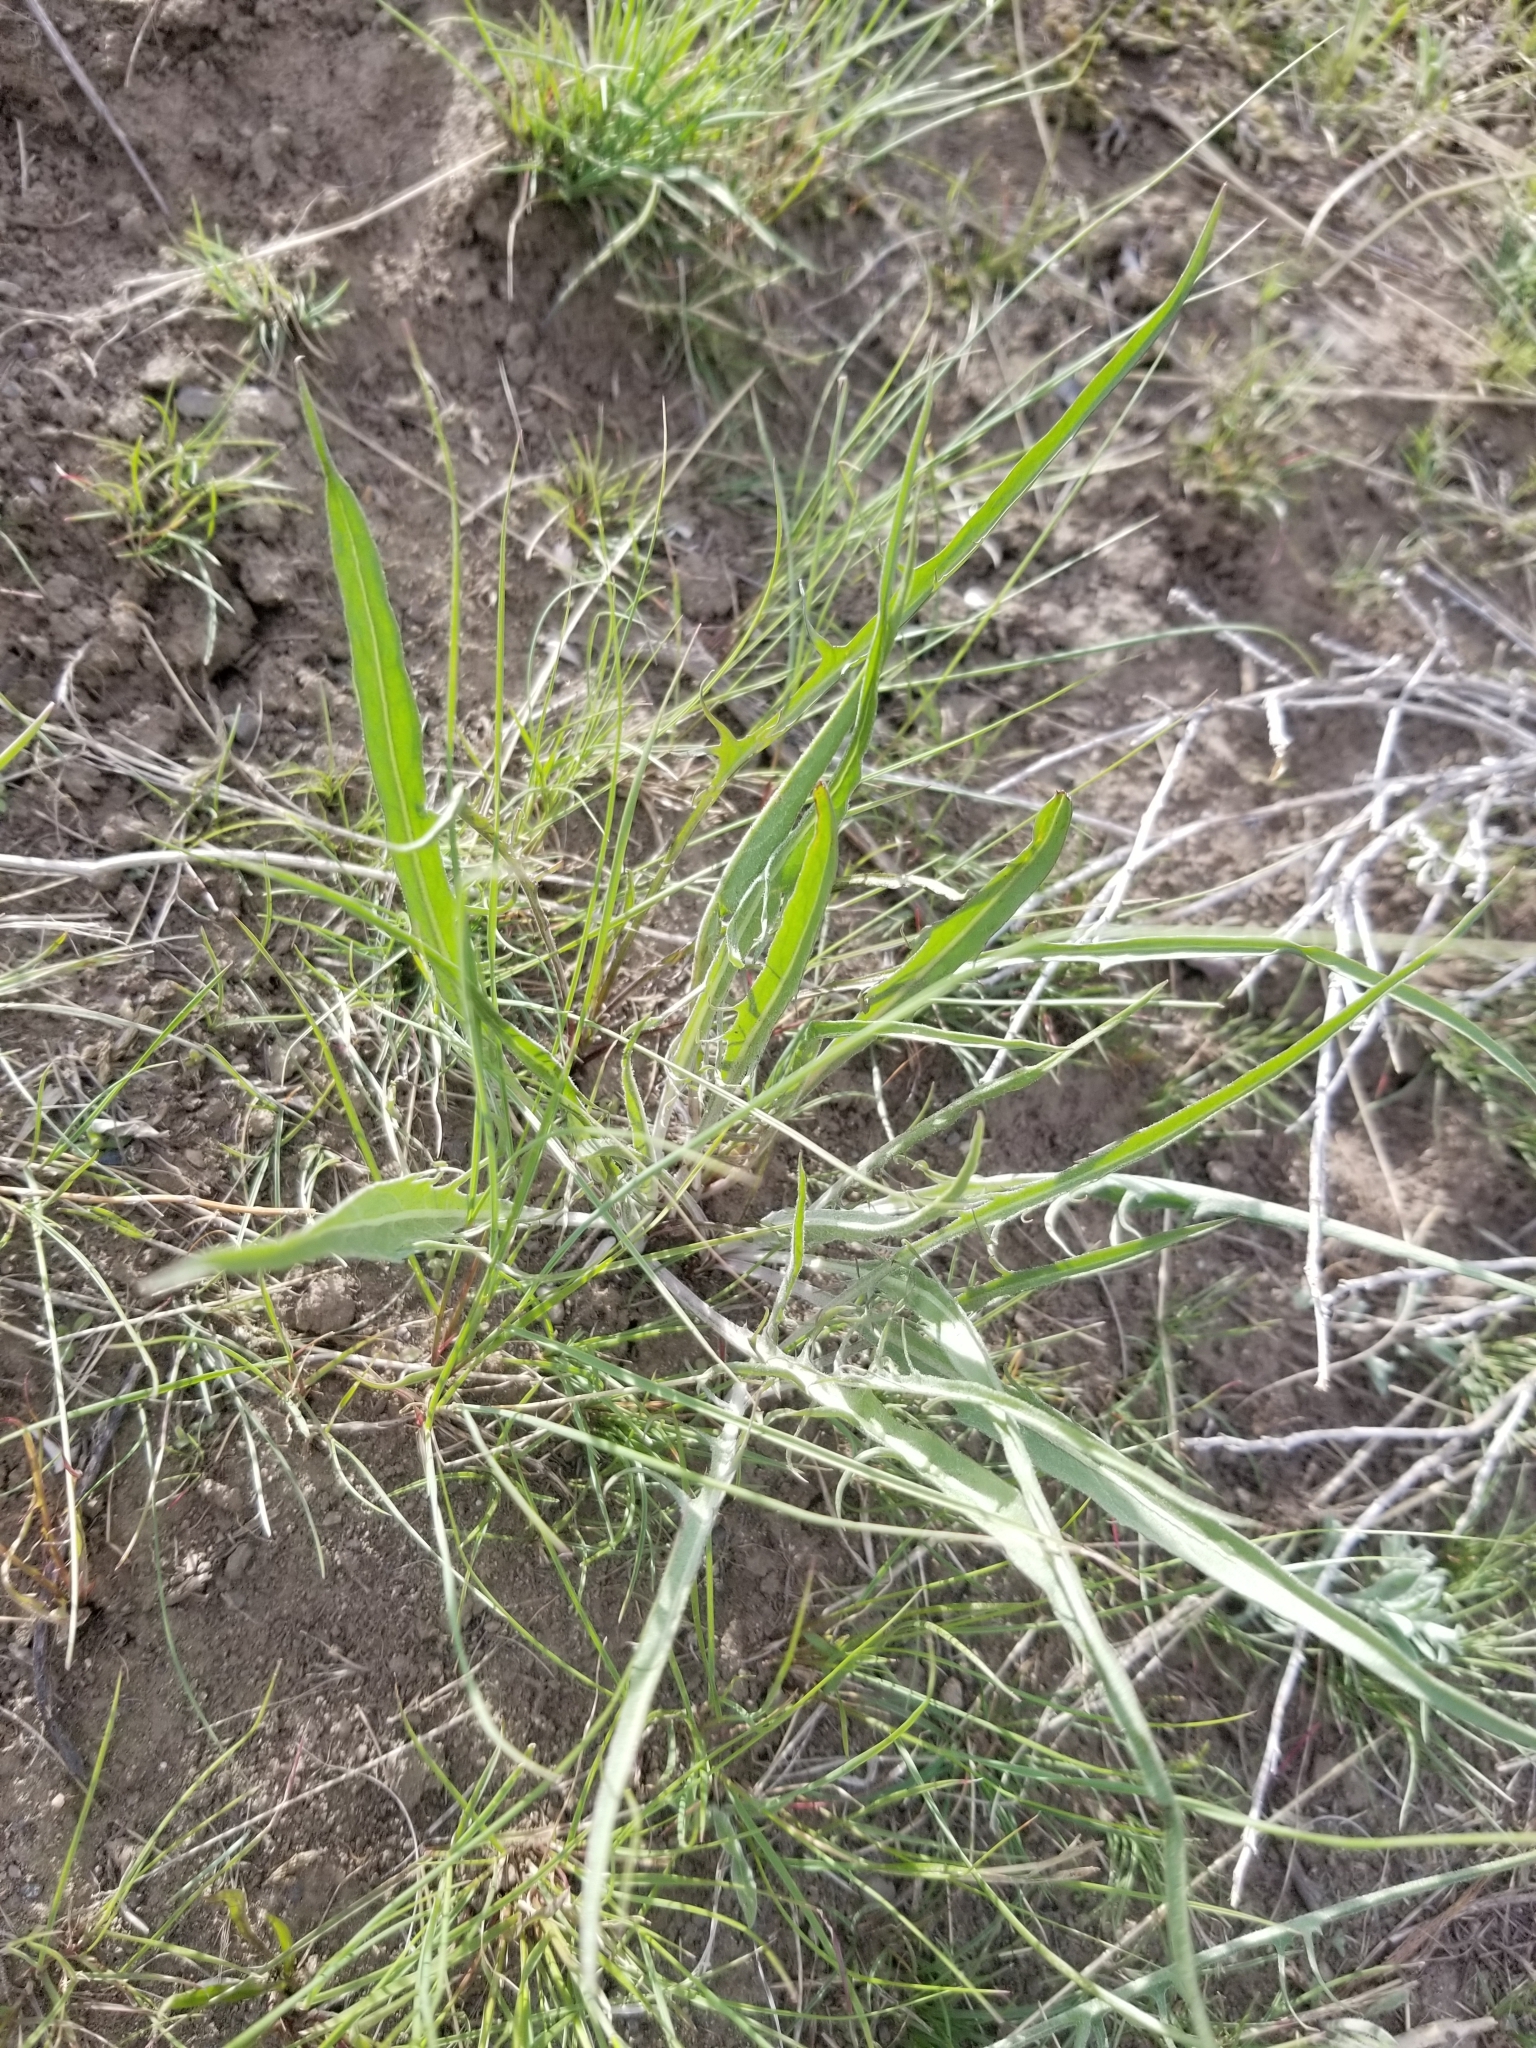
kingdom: Plantae
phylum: Tracheophyta
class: Magnoliopsida
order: Asterales
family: Asteraceae
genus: Crepis
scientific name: Crepis atribarba
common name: Dark hawk's-beard
